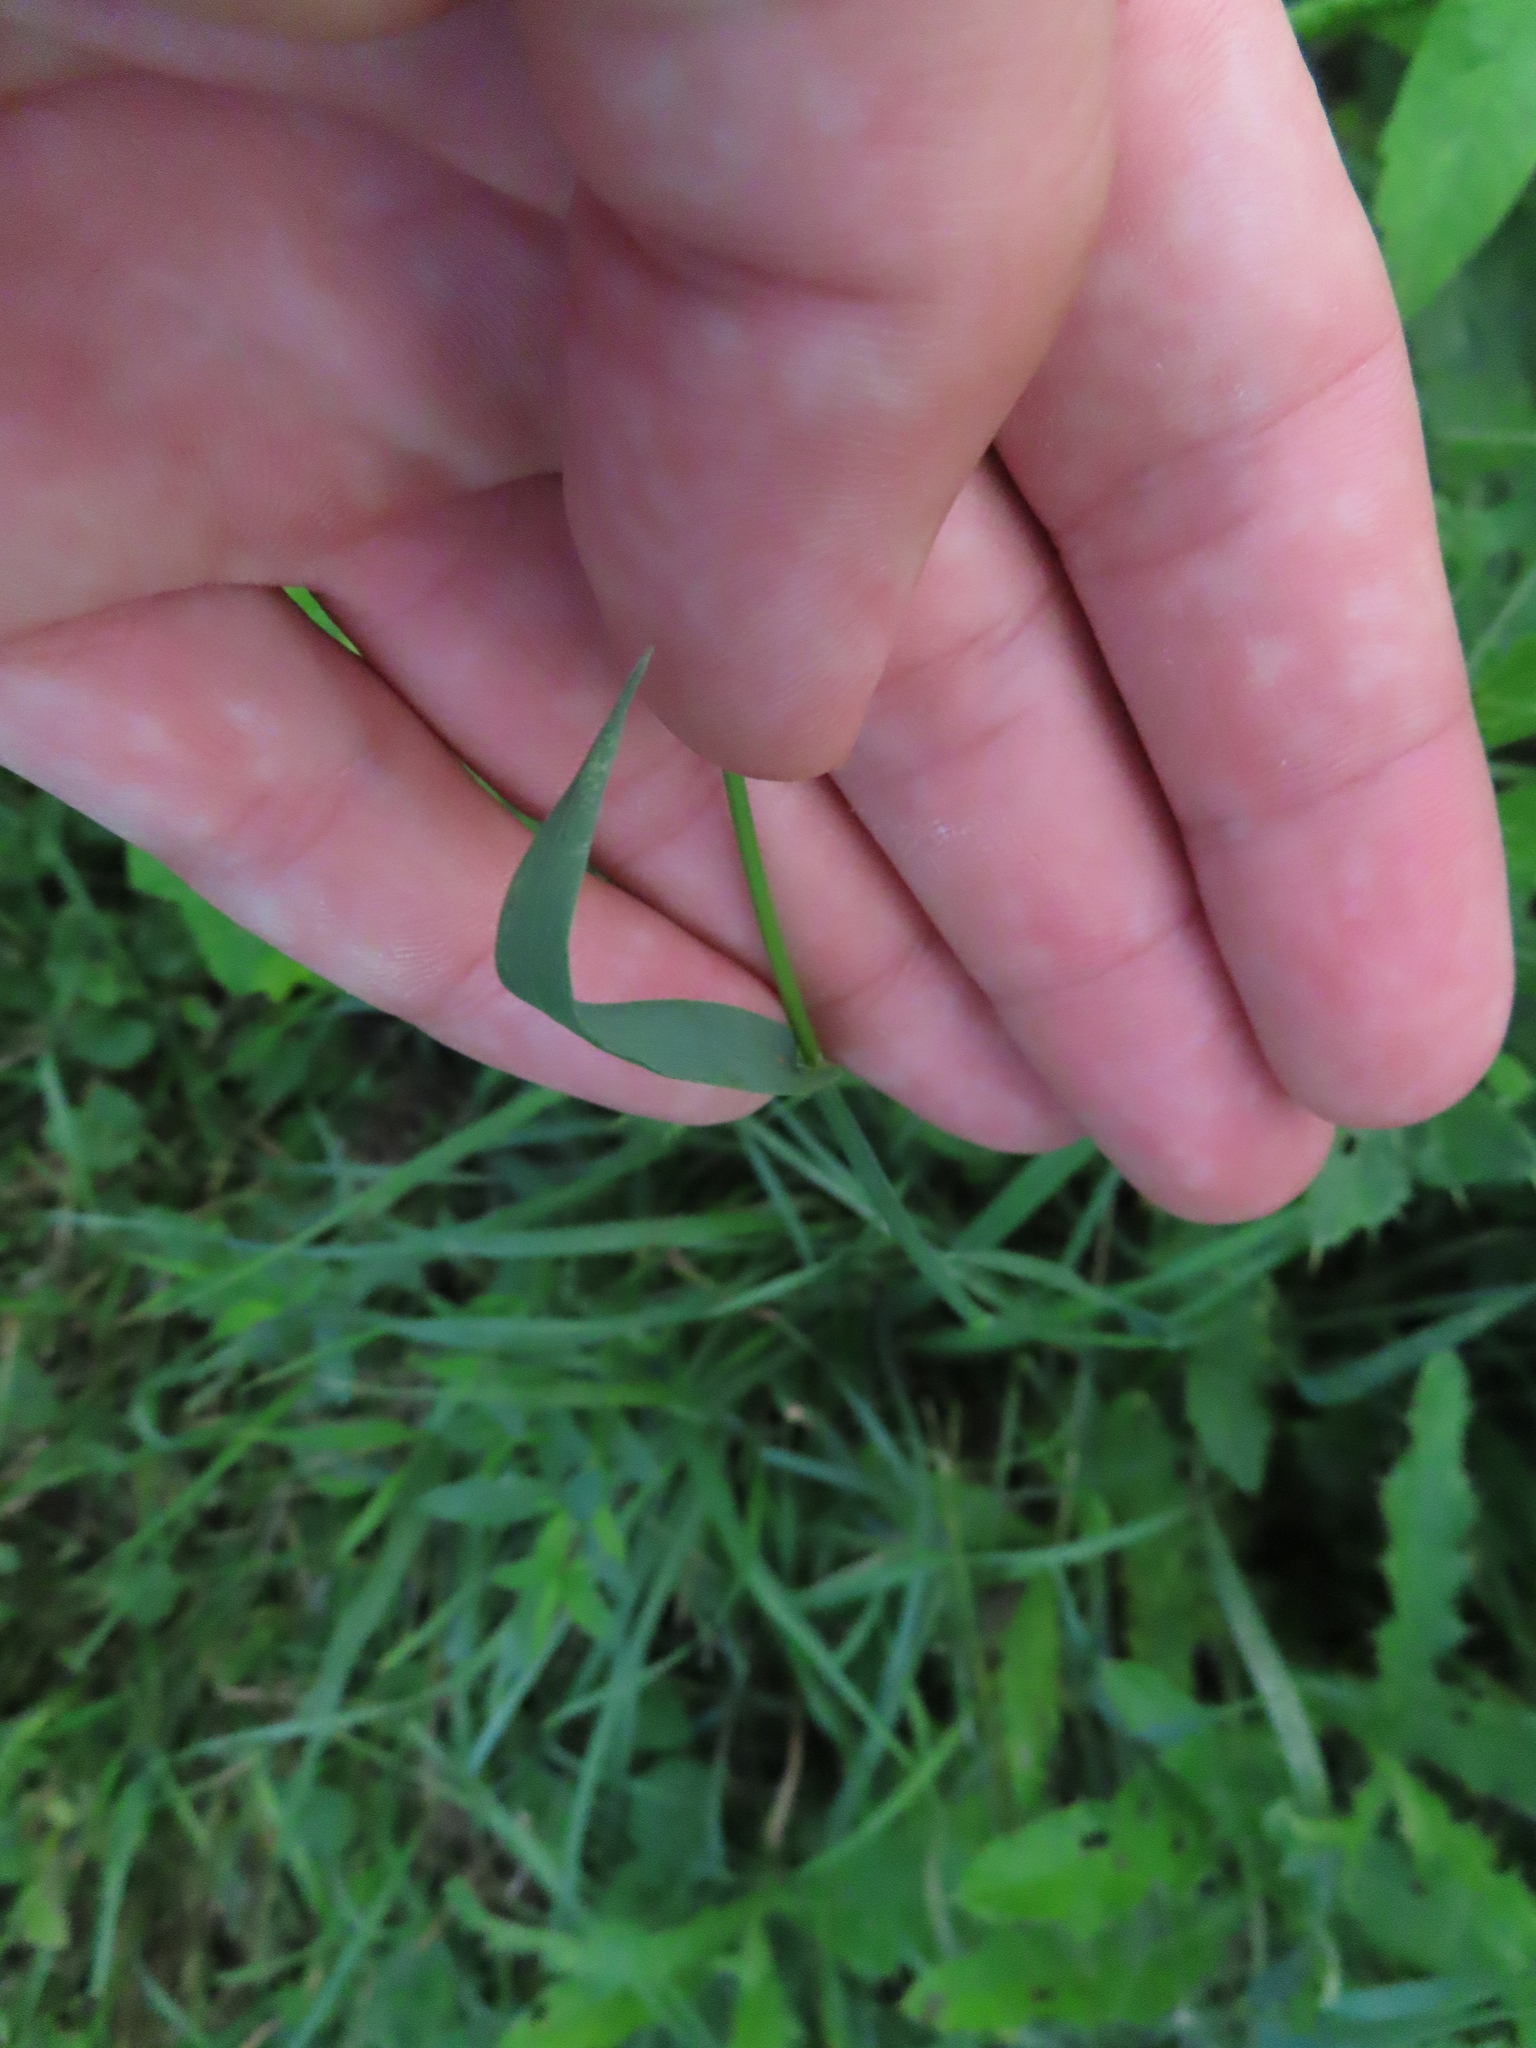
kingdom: Plantae
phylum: Tracheophyta
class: Liliopsida
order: Poales
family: Poaceae
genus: Phleum
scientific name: Phleum pratense
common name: Timothy grass
